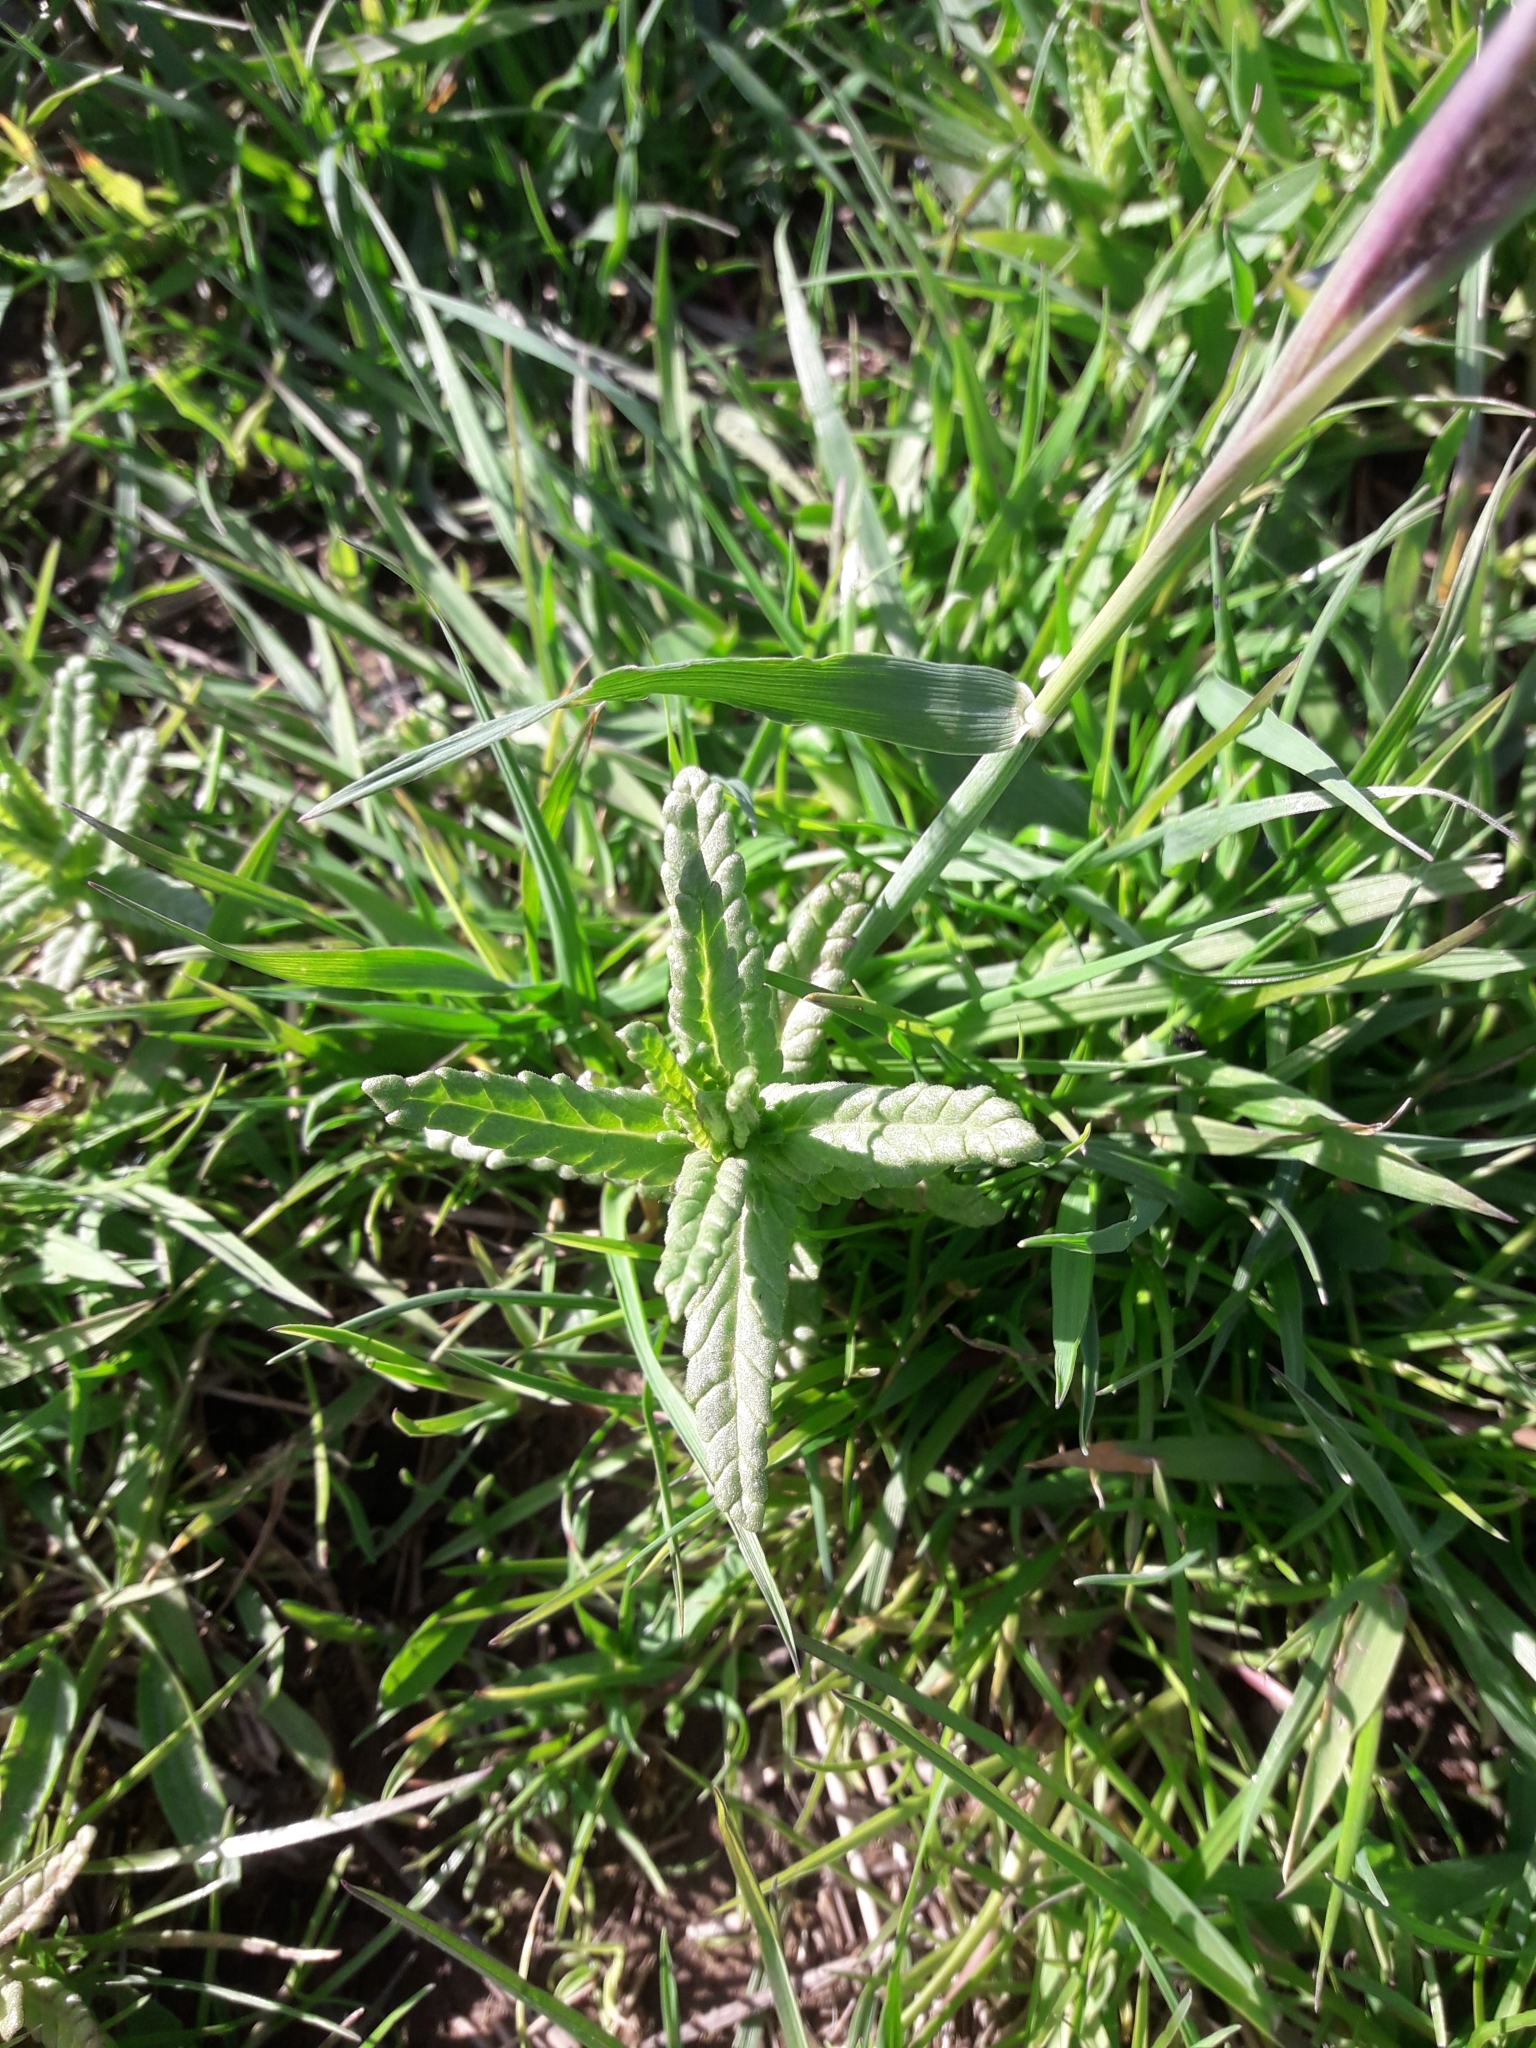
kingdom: Plantae
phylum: Tracheophyta
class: Magnoliopsida
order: Lamiales
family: Orobanchaceae
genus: Rhinanthus
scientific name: Rhinanthus minor
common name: Yellow-rattle
